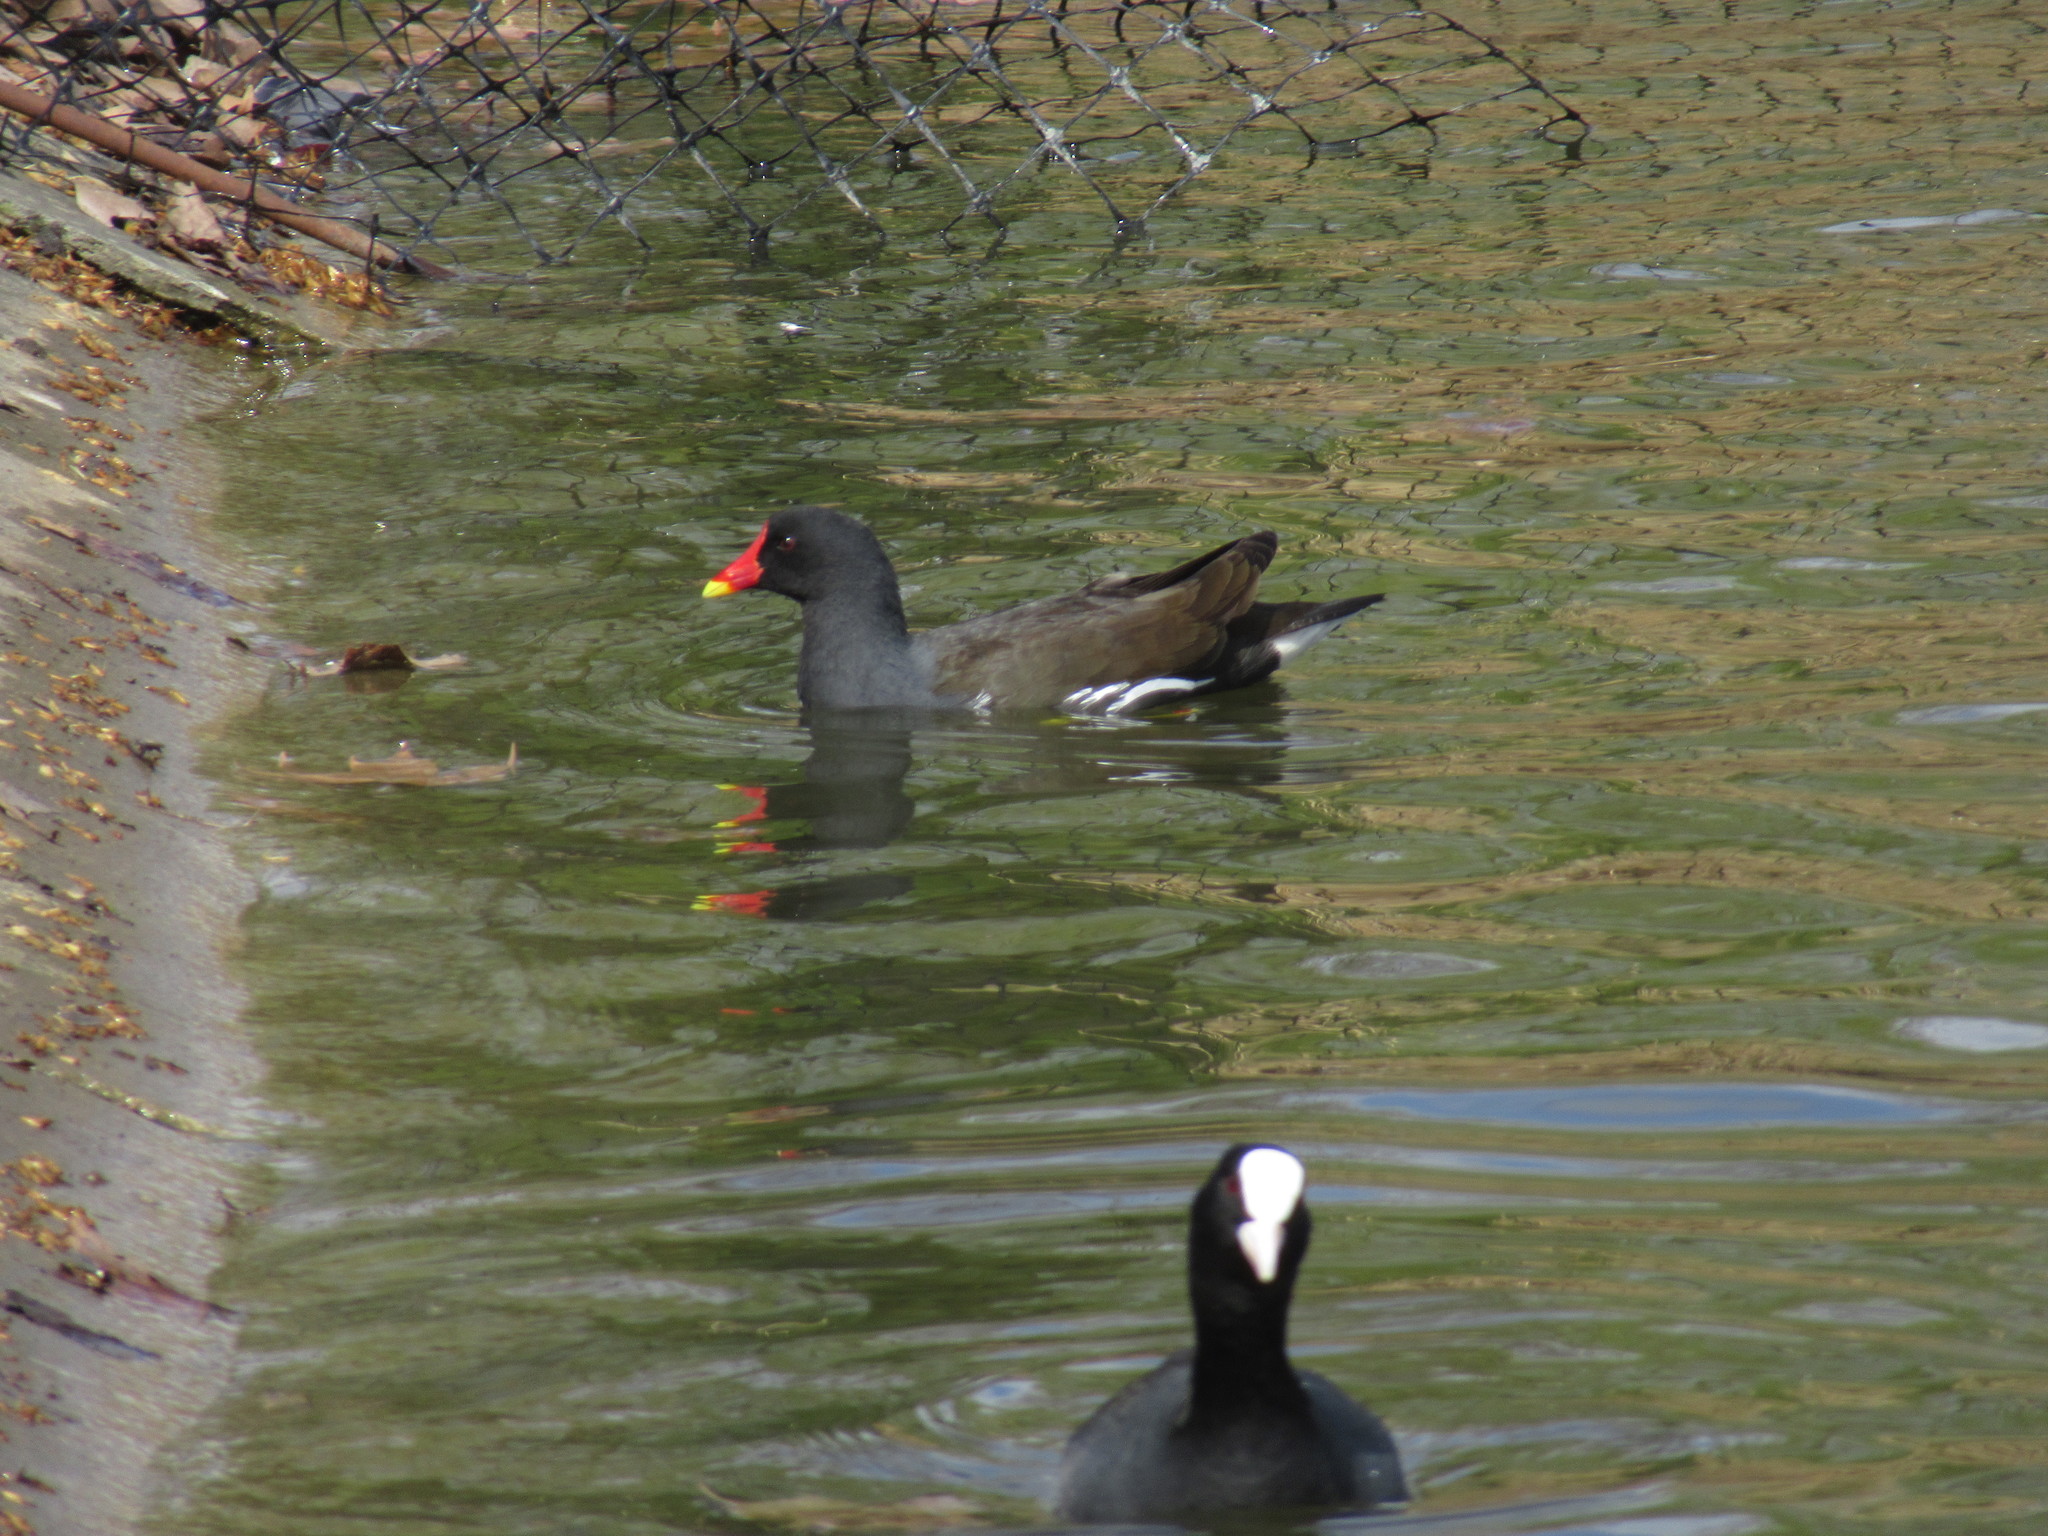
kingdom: Animalia
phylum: Chordata
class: Aves
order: Gruiformes
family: Rallidae
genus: Gallinula
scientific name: Gallinula chloropus
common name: Common moorhen
